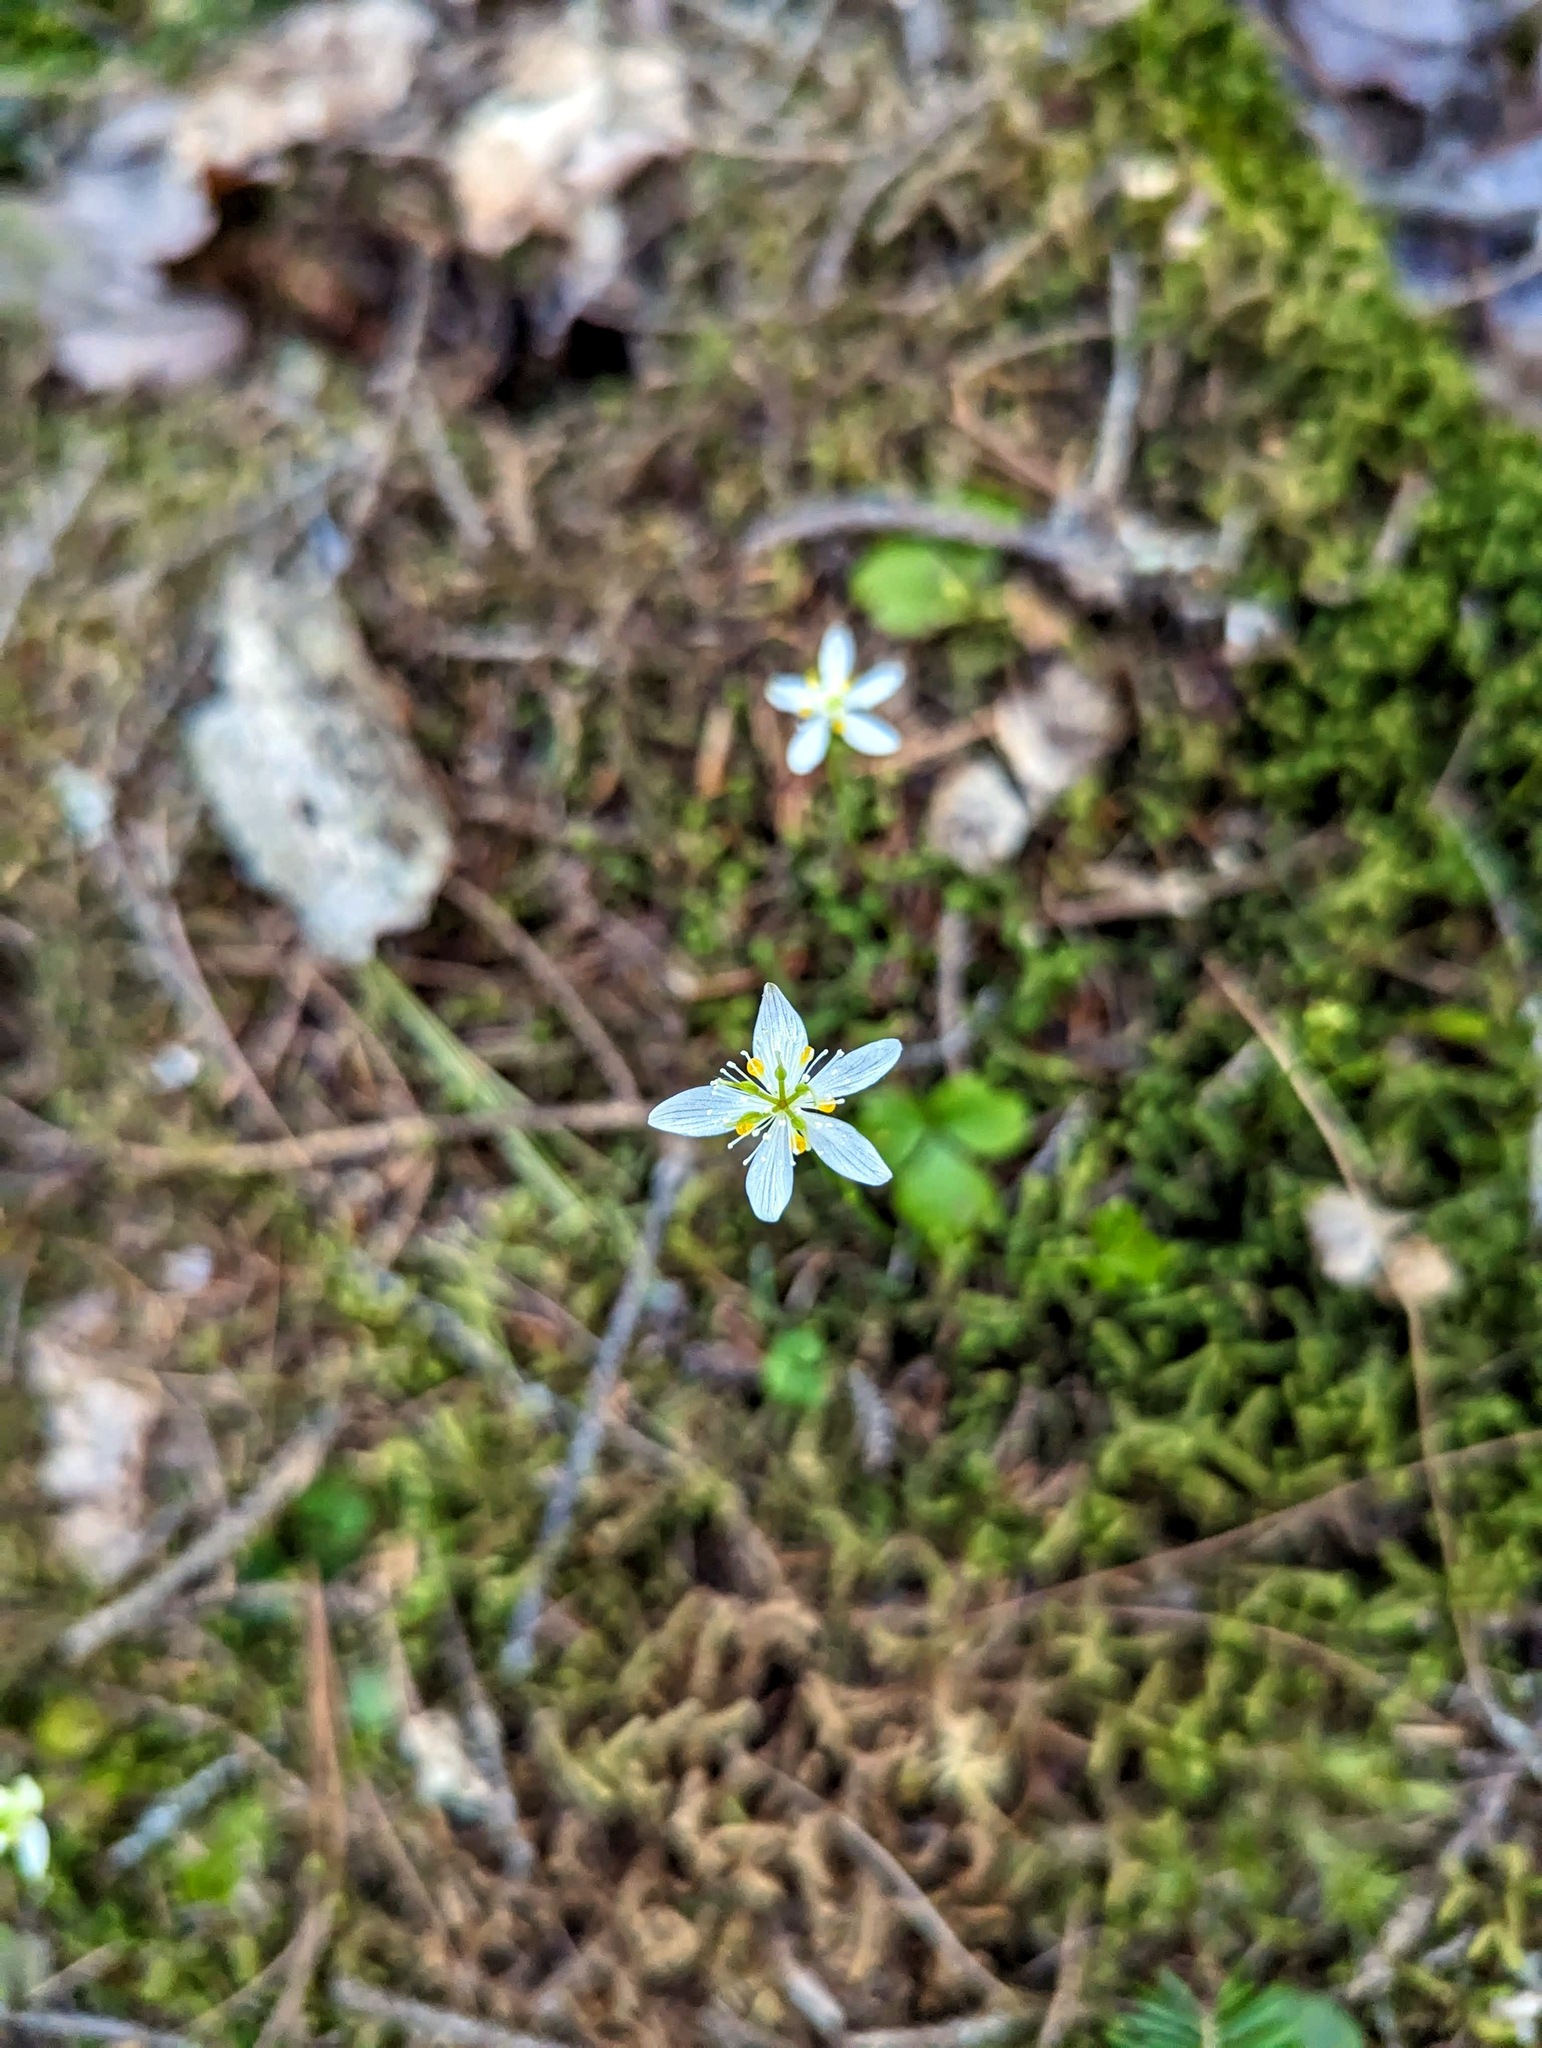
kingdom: Plantae
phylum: Tracheophyta
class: Magnoliopsida
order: Ranunculales
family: Ranunculaceae
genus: Coptis
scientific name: Coptis trifolia
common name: Canker-root
